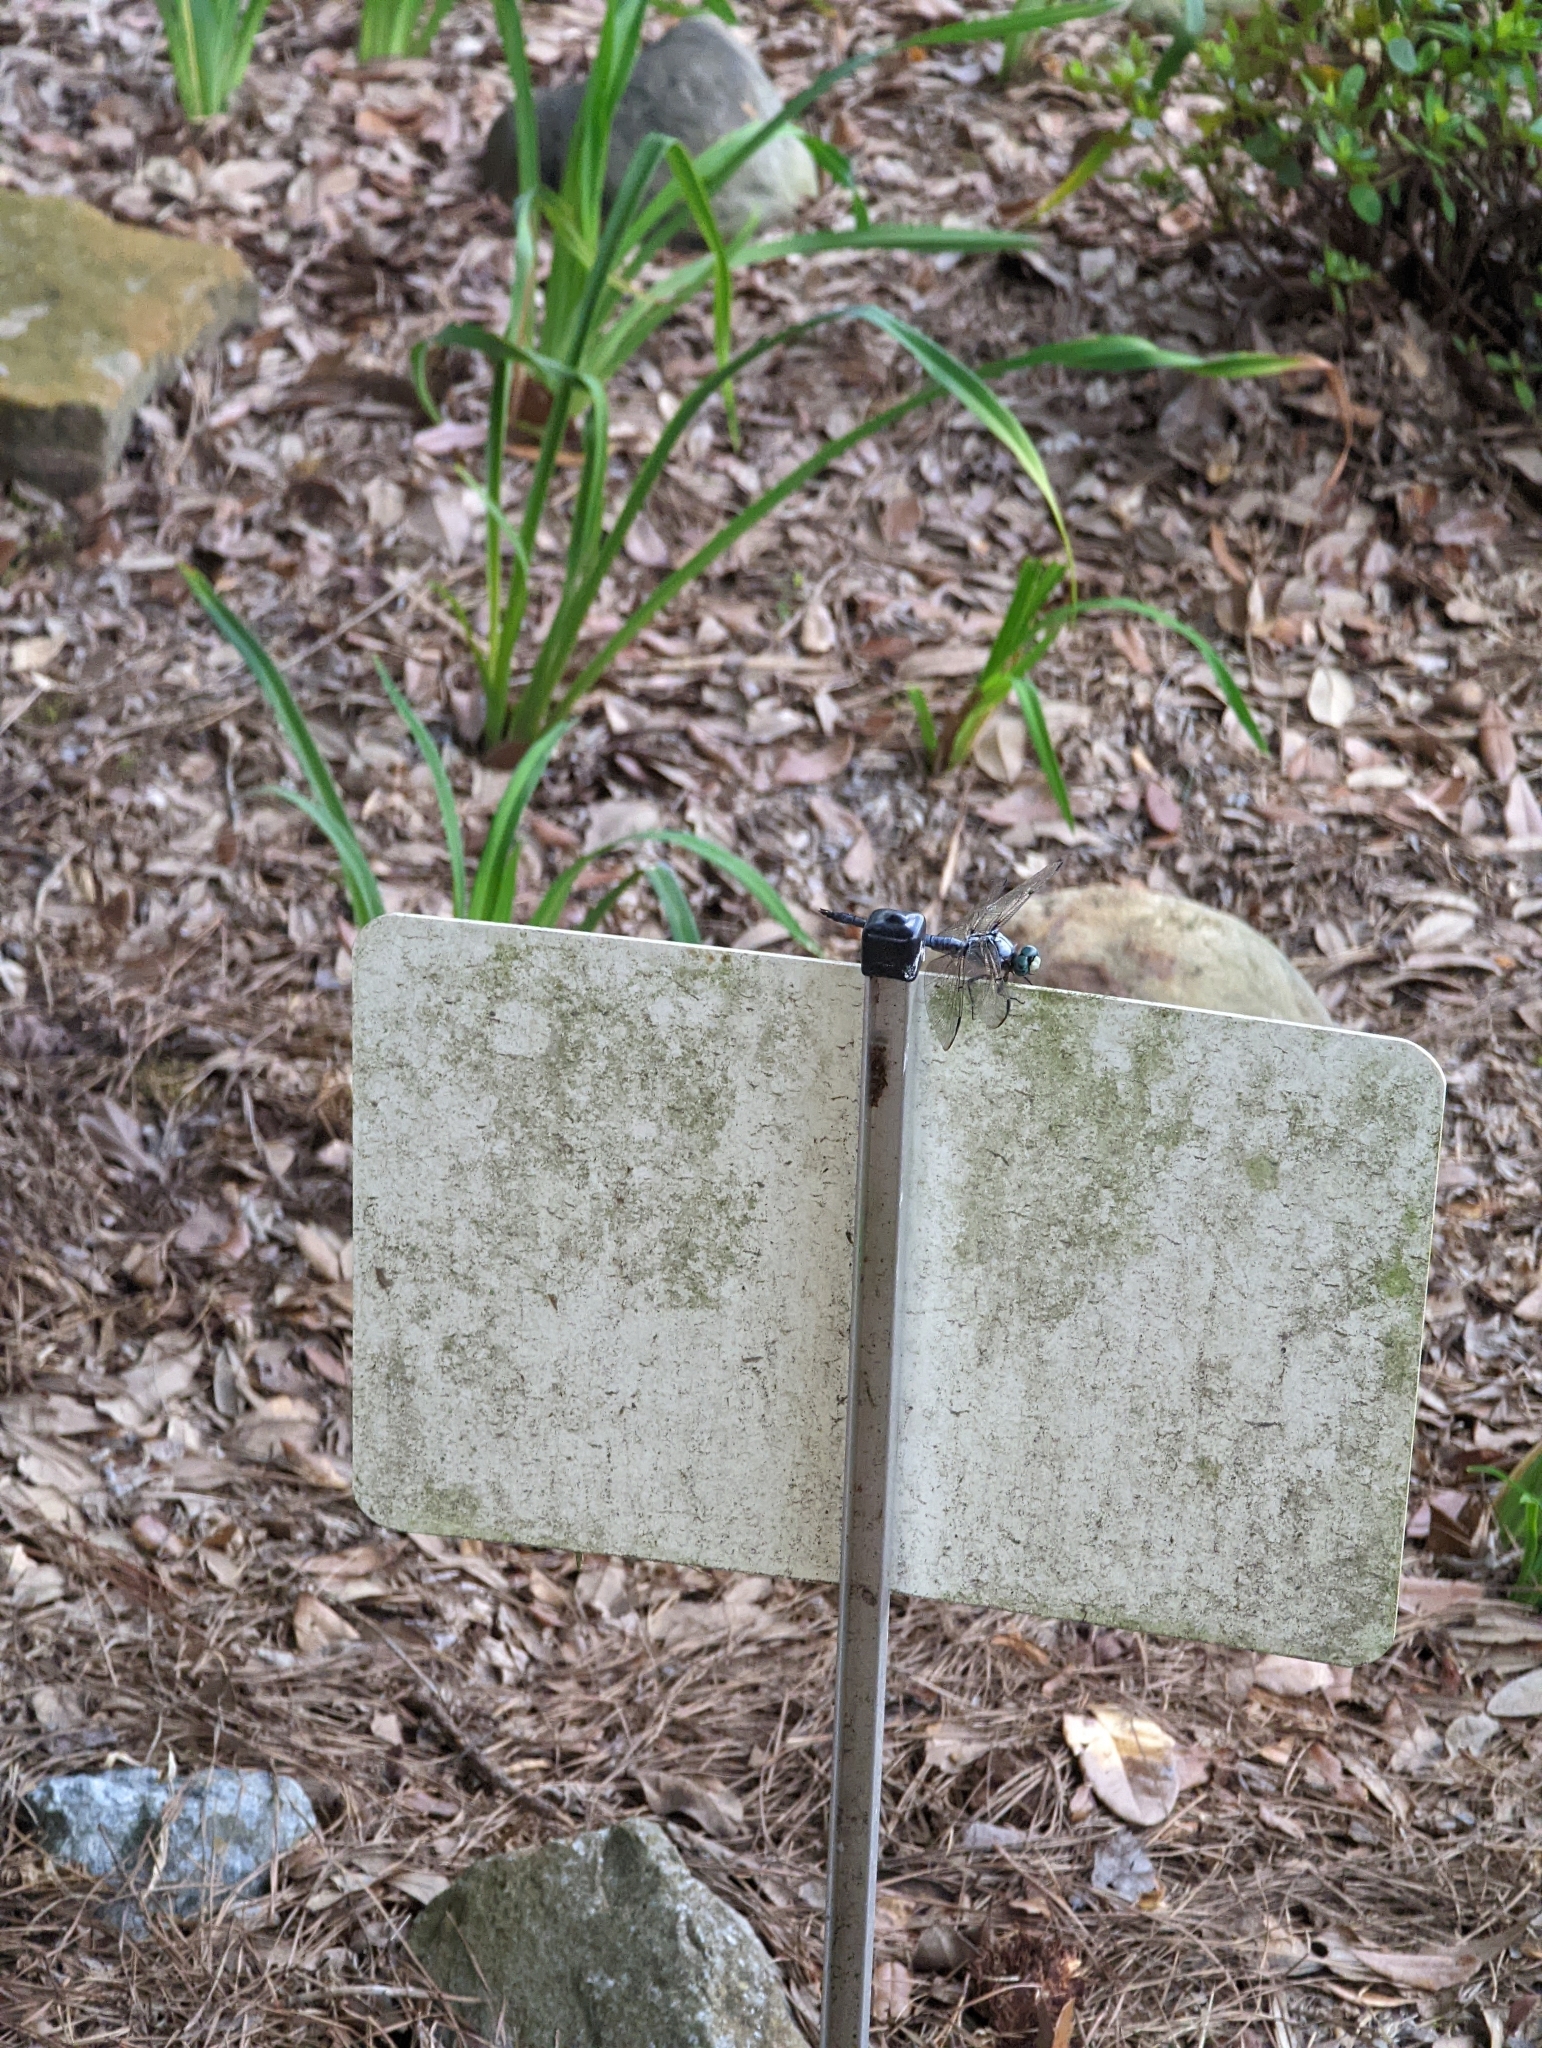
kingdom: Animalia
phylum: Arthropoda
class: Insecta
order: Odonata
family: Libellulidae
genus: Libellula
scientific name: Libellula vibrans
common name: Great blue skimmer
